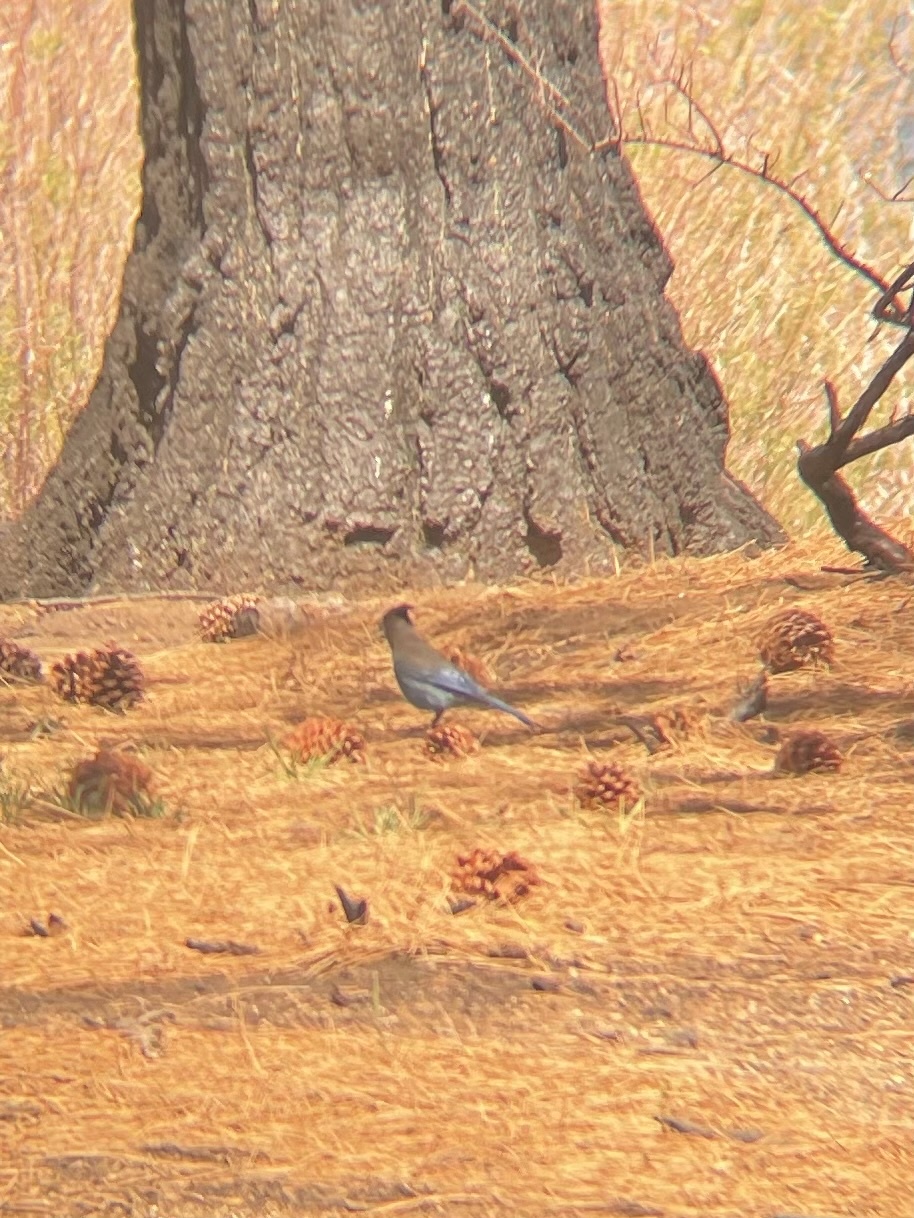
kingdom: Animalia
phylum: Chordata
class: Aves
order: Passeriformes
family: Corvidae
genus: Cyanocitta
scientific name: Cyanocitta stelleri
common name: Steller's jay
